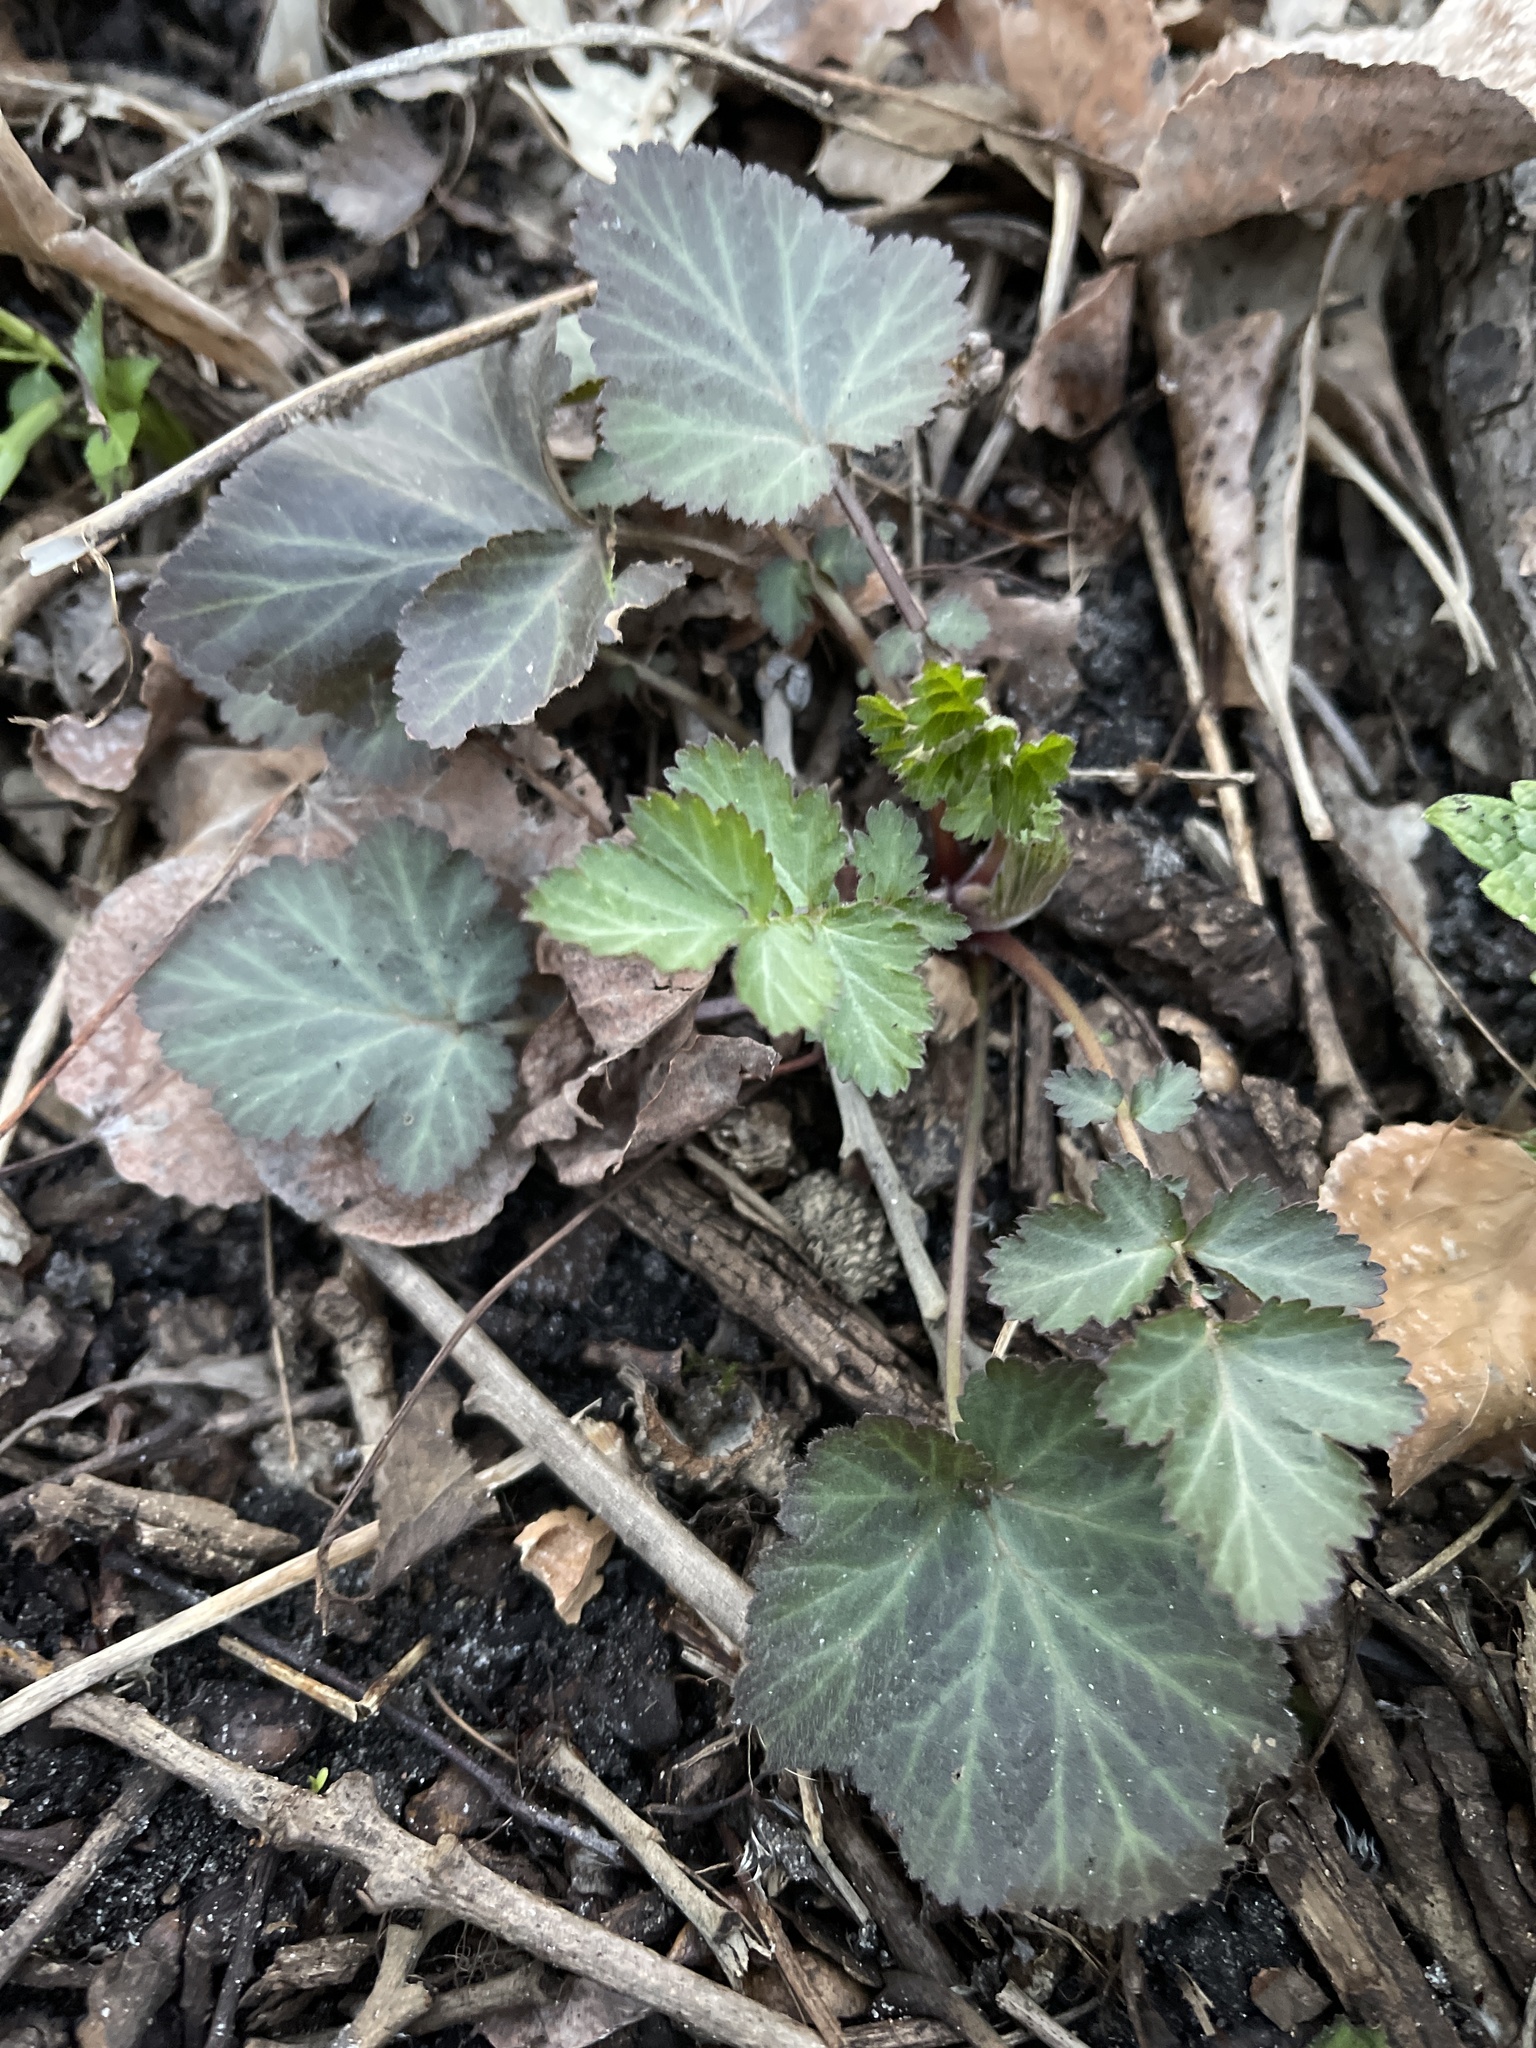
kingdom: Plantae
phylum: Tracheophyta
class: Magnoliopsida
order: Rosales
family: Rosaceae
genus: Geum
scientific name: Geum canadense
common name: White avens
